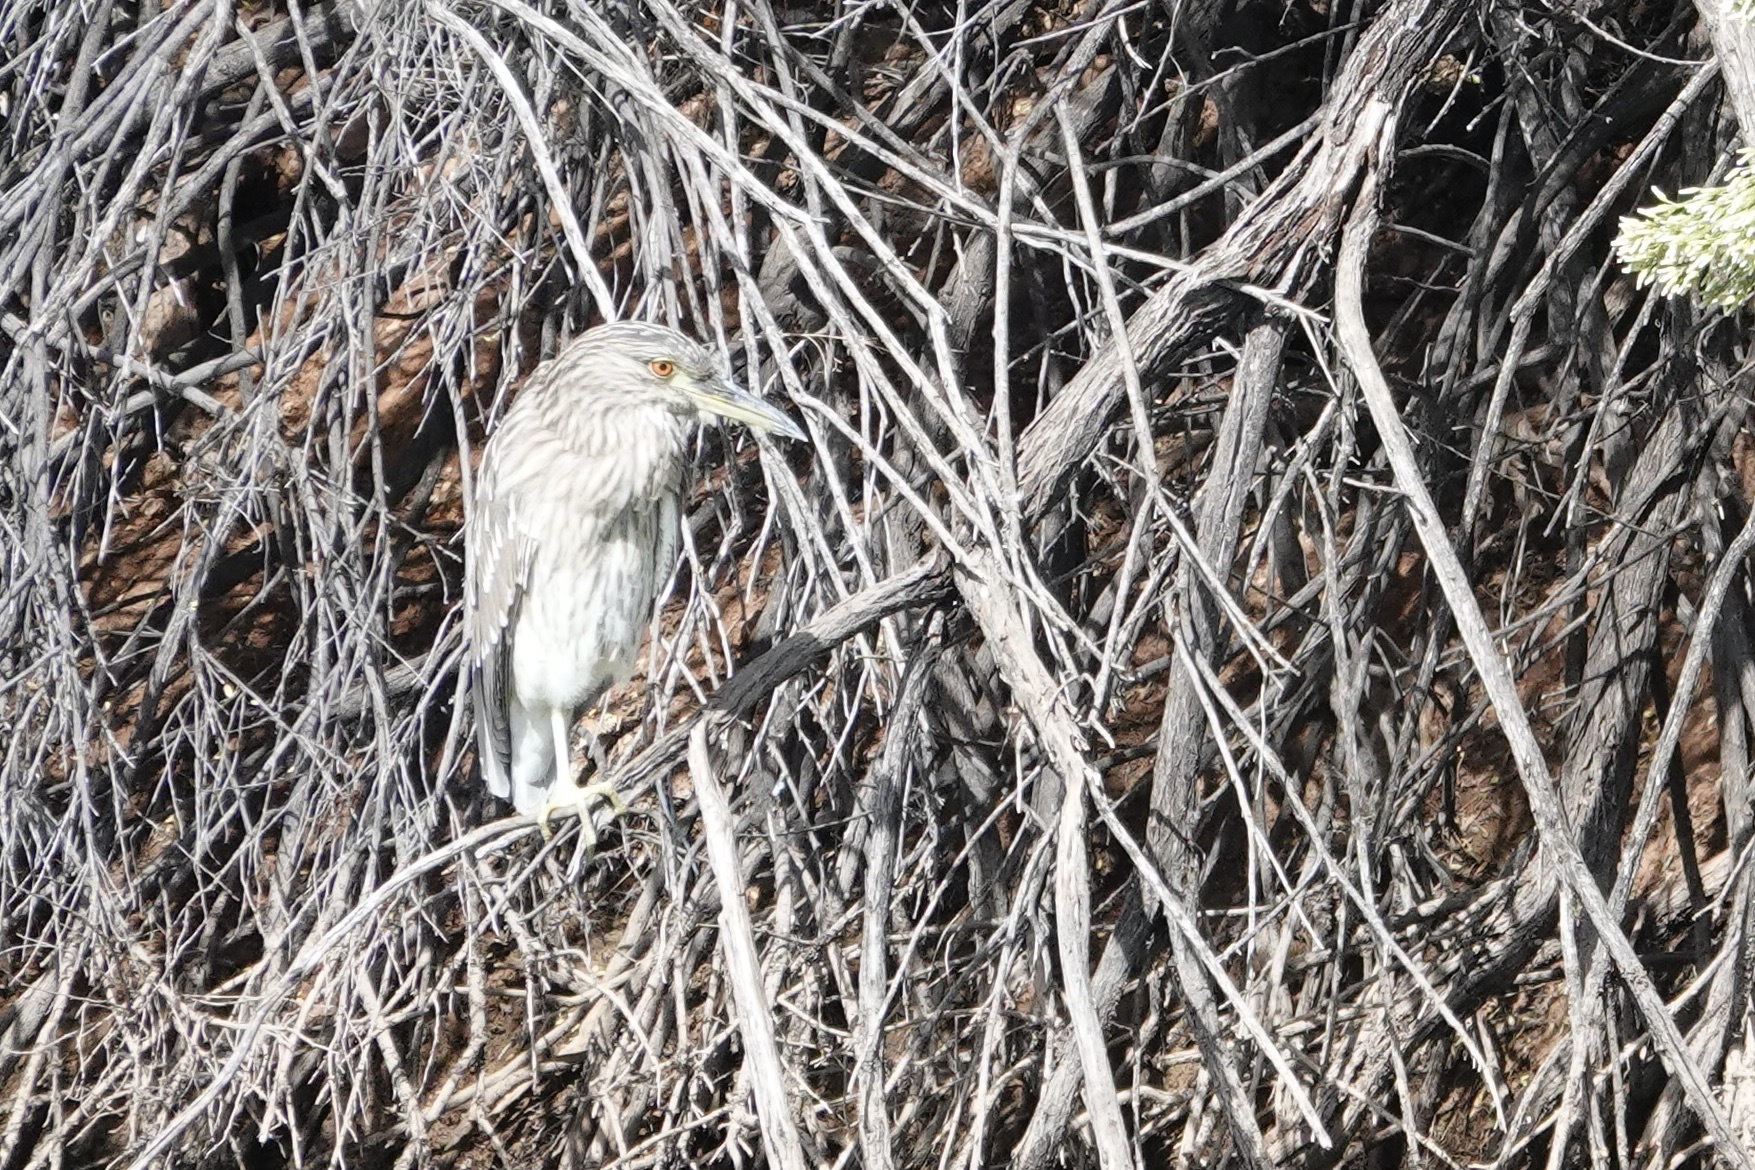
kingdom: Animalia
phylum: Chordata
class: Aves
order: Pelecaniformes
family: Ardeidae
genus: Nycticorax
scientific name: Nycticorax nycticorax
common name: Black-crowned night heron
